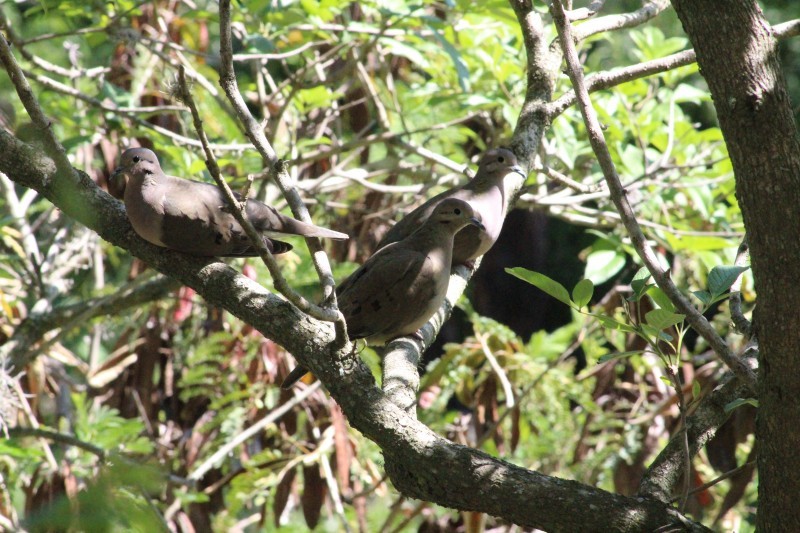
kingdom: Animalia
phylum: Chordata
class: Aves
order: Columbiformes
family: Columbidae
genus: Zenaida
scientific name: Zenaida auriculata
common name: Eared dove
